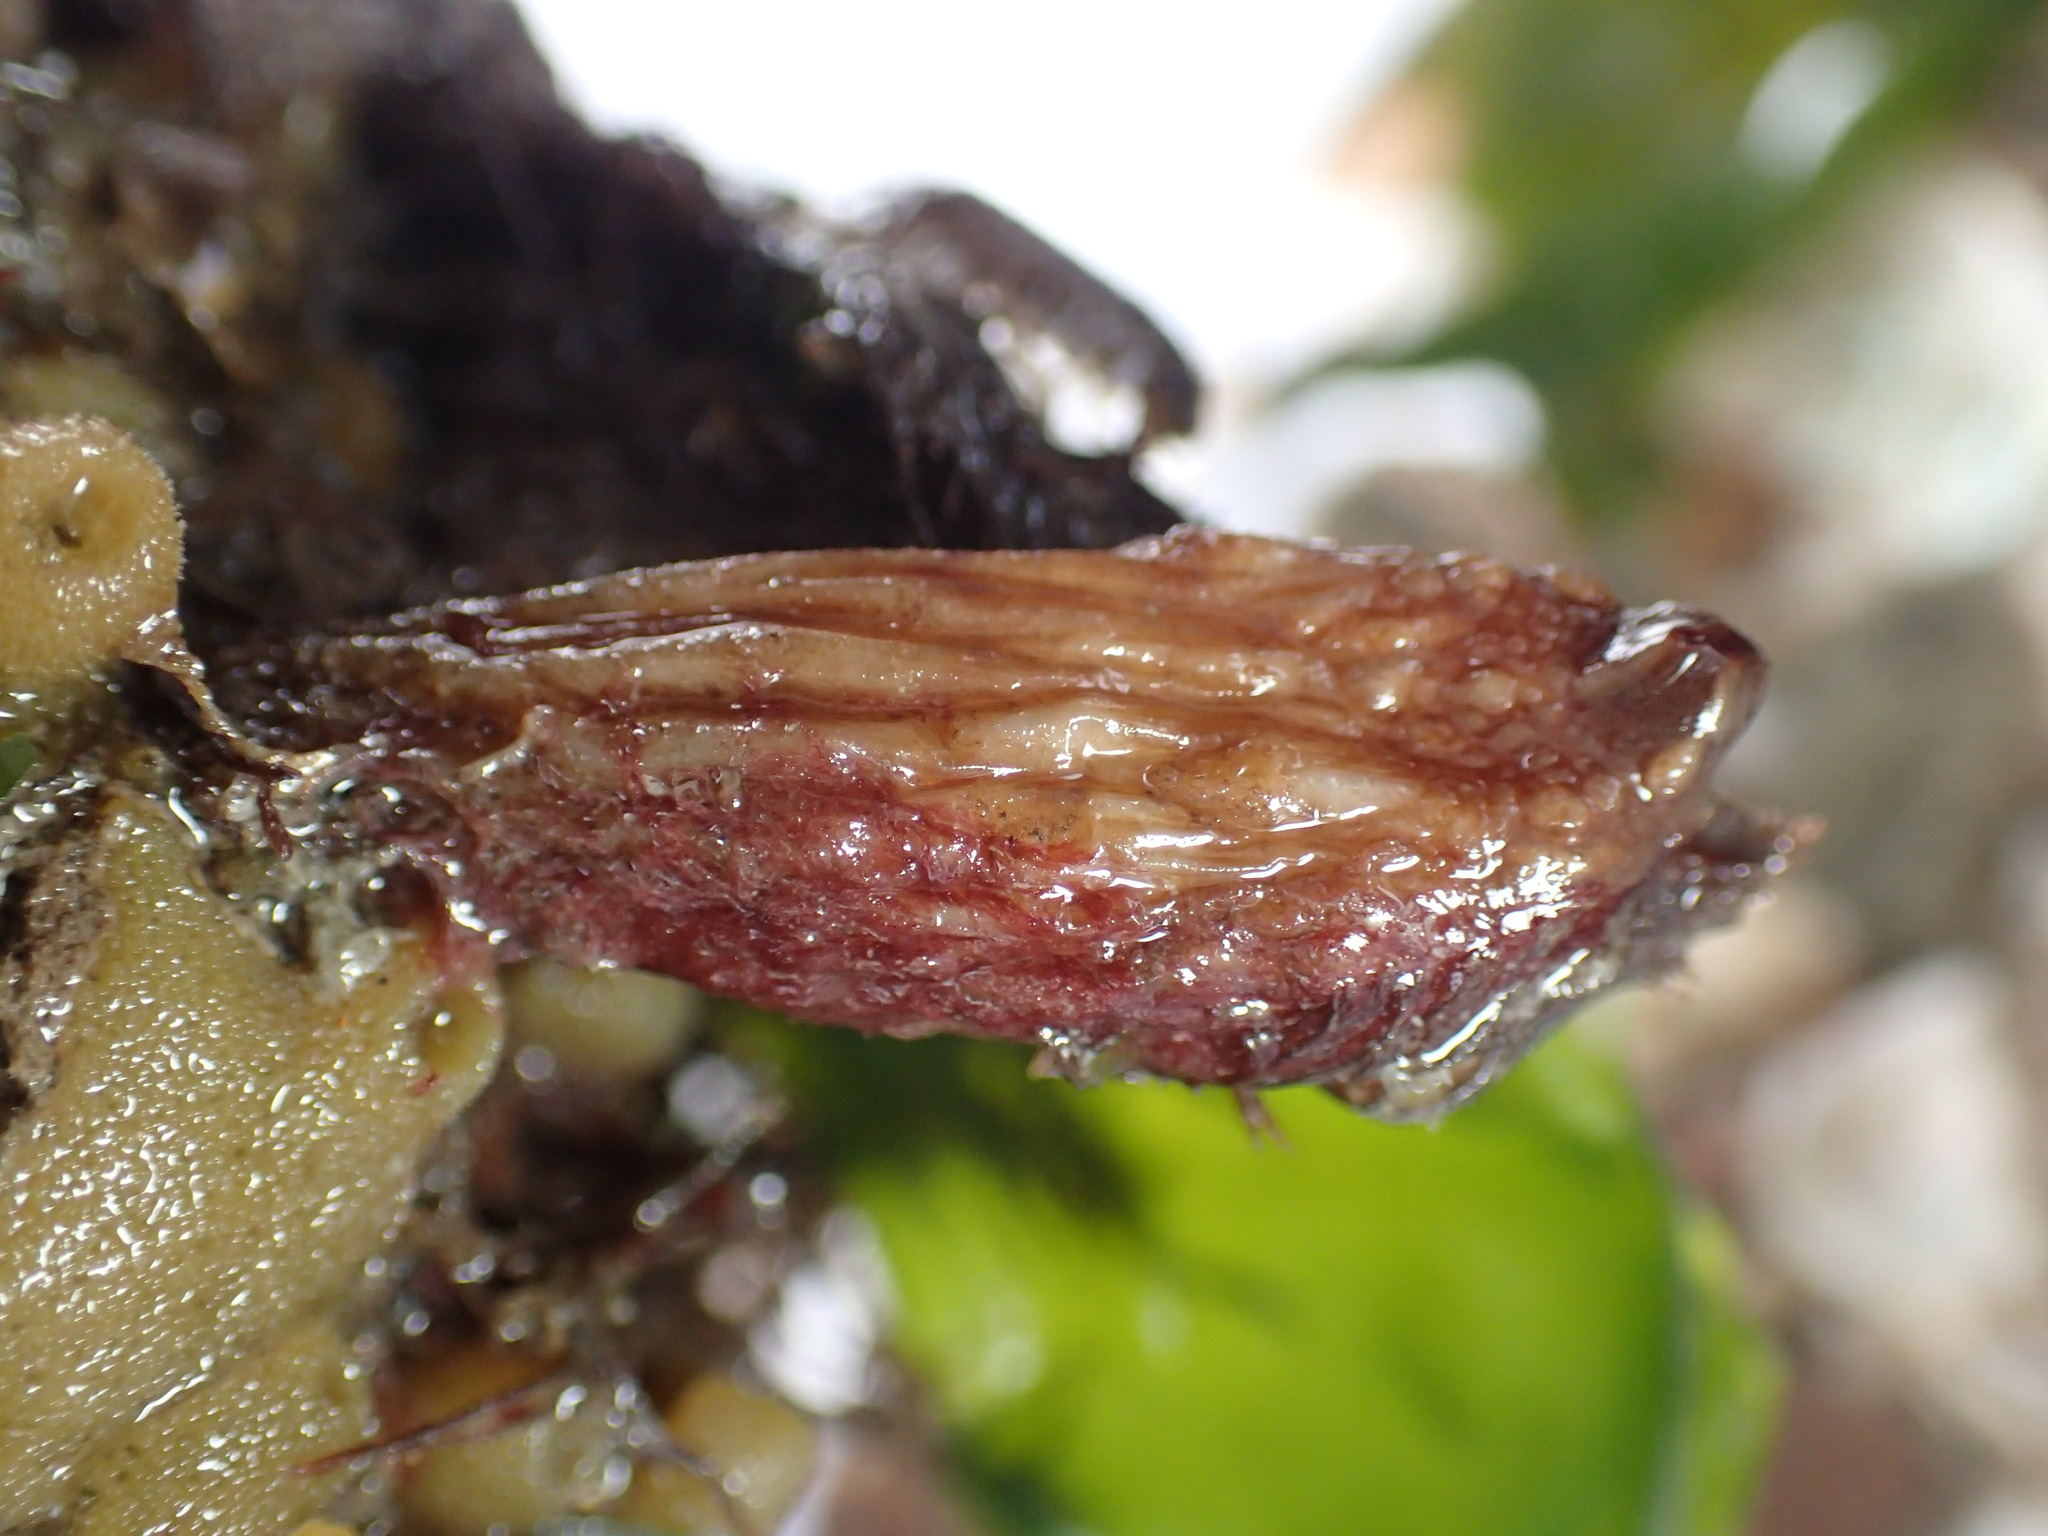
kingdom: Animalia
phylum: Chordata
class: Ascidiacea
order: Stolidobranchia
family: Styelidae
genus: Styela
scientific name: Styela clava
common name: Leathery sea squirt
